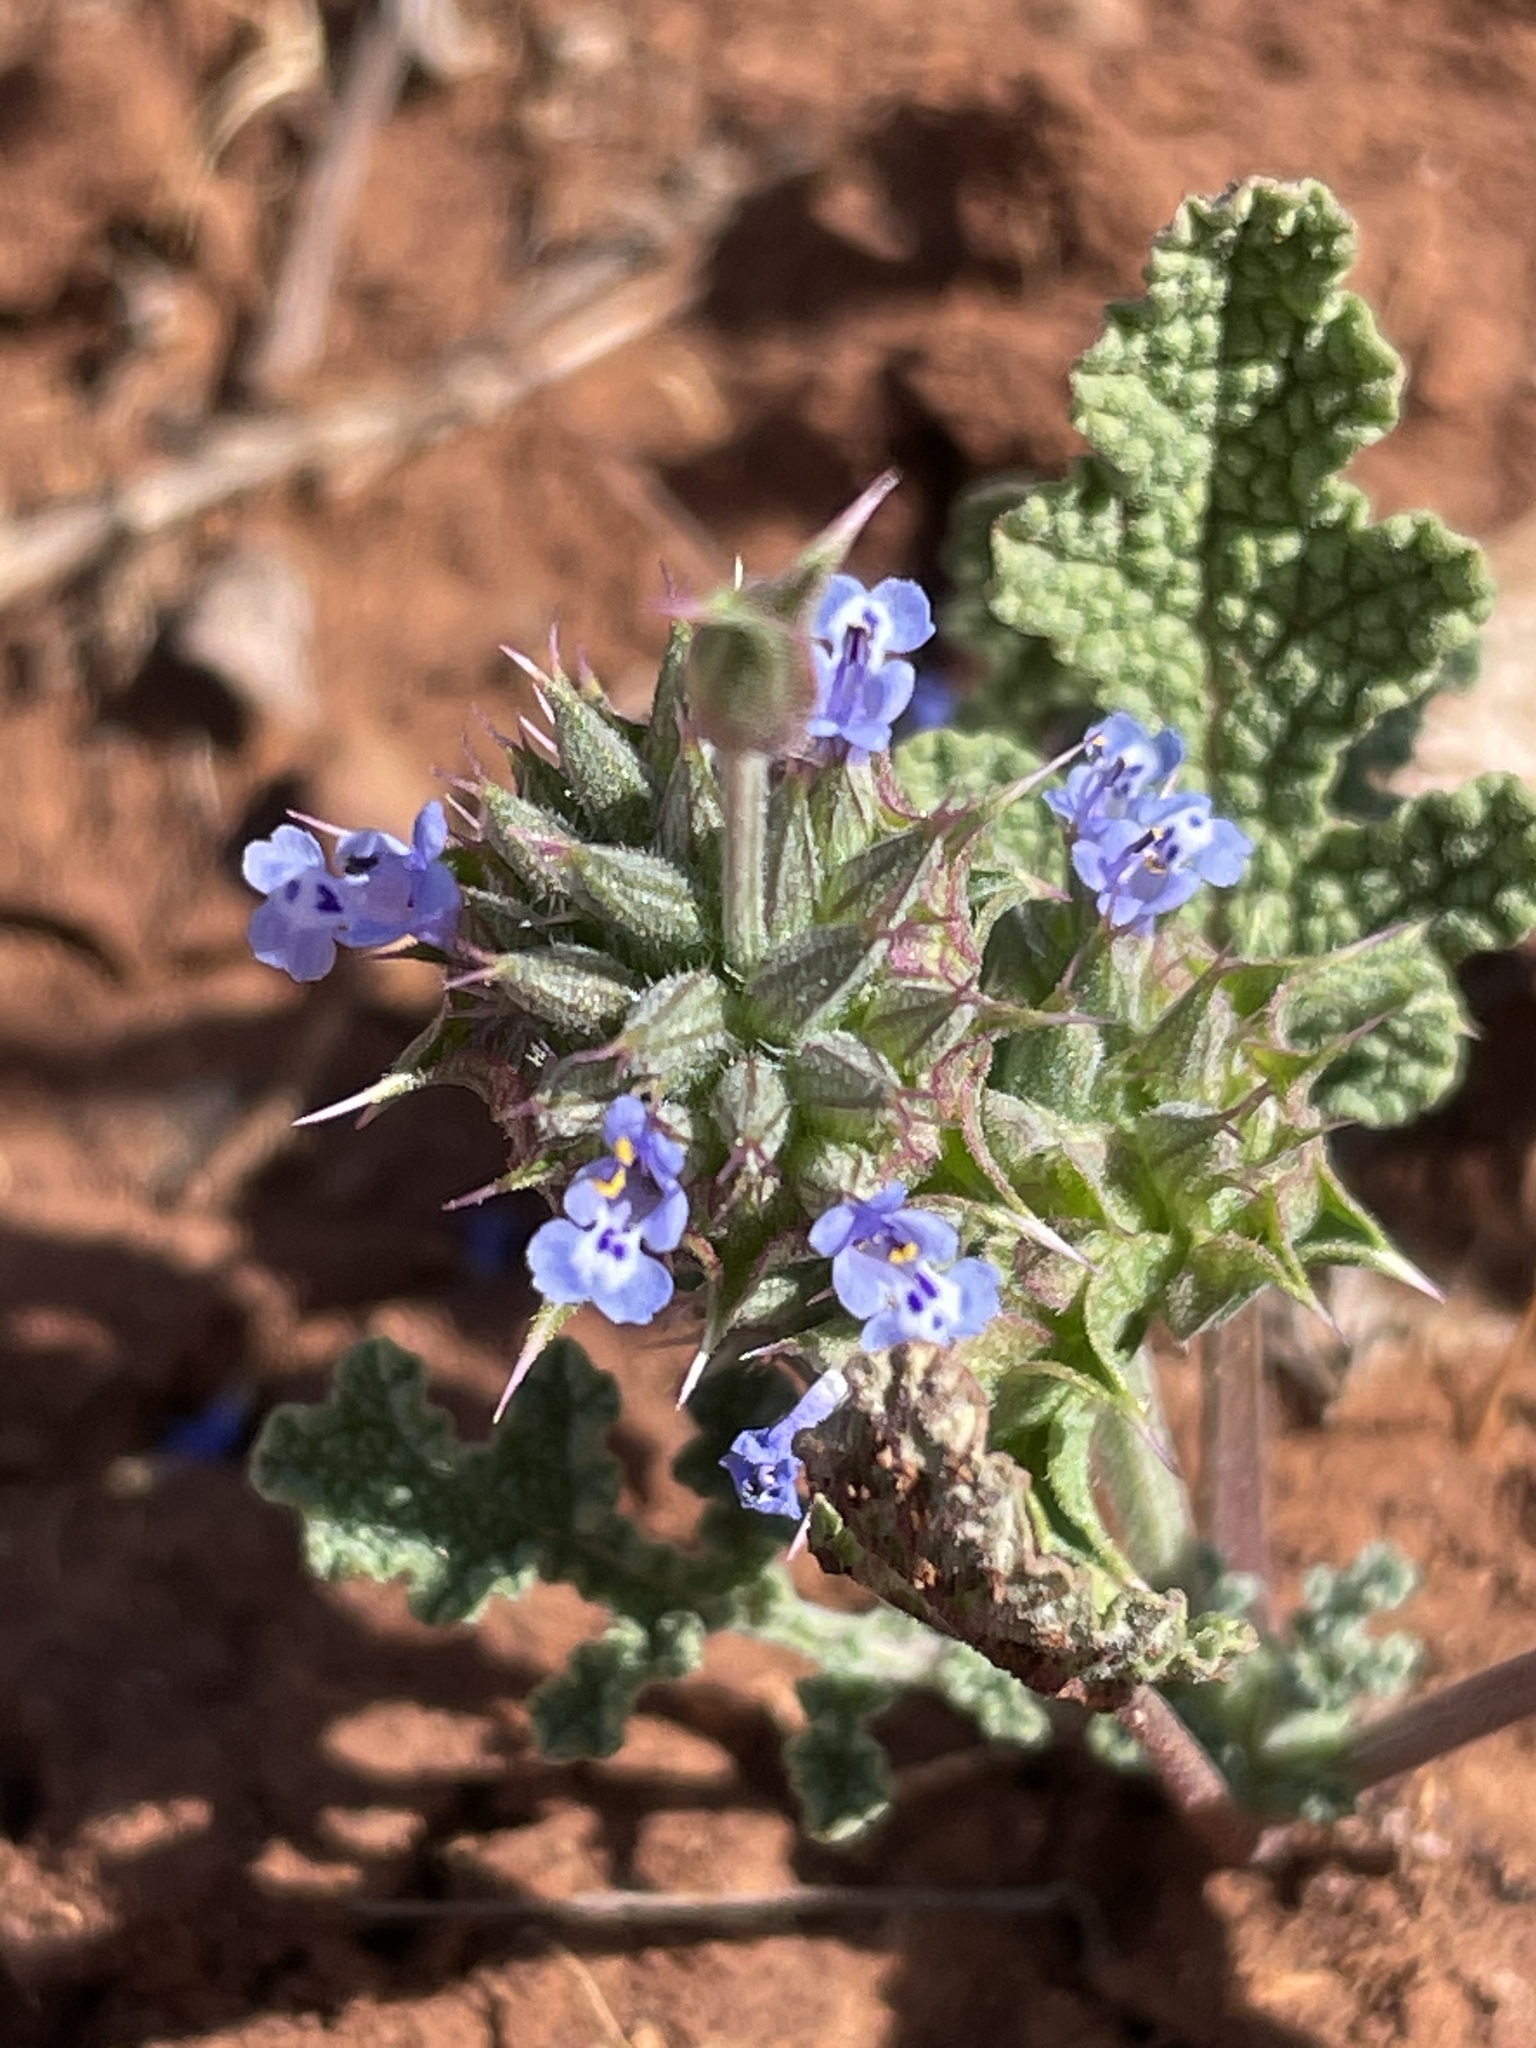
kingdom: Plantae
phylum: Tracheophyta
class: Magnoliopsida
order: Lamiales
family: Lamiaceae
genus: Salvia
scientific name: Salvia columbariae
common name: Chia
